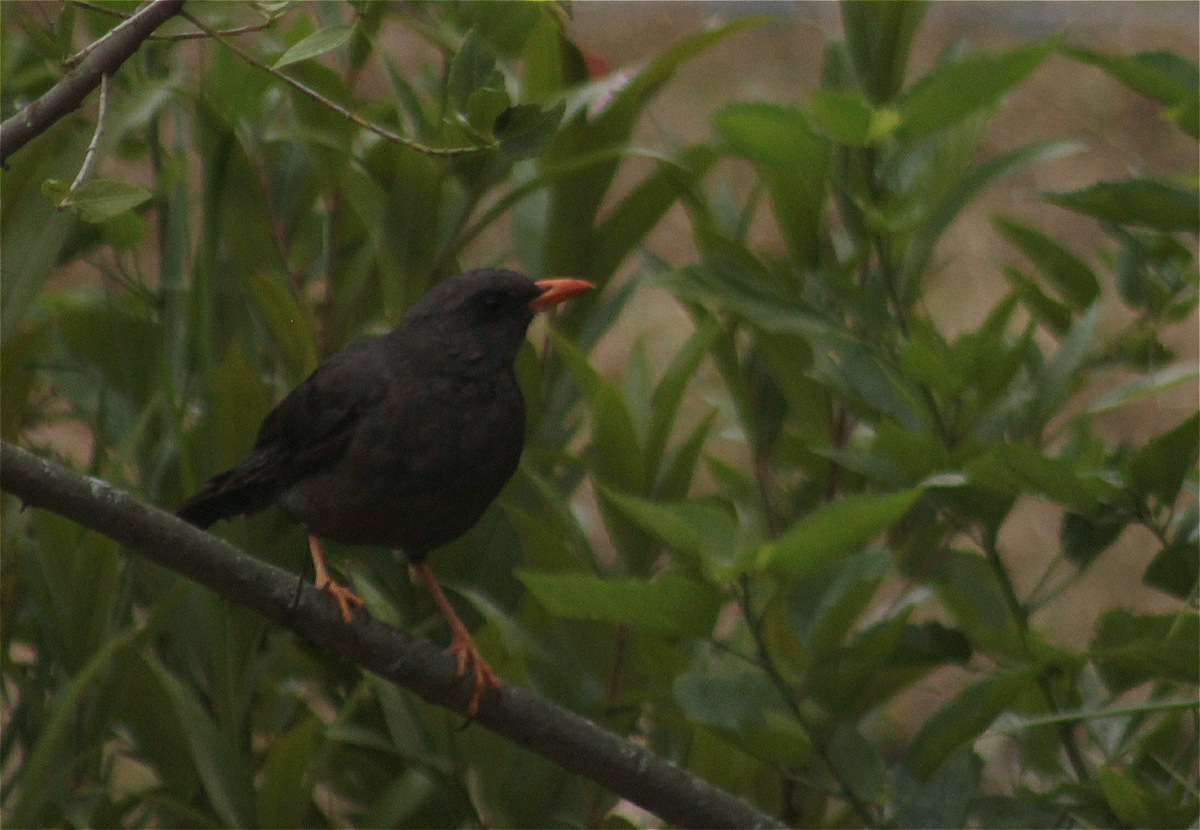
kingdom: Animalia
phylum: Chordata
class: Aves
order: Passeriformes
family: Turdidae
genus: Turdus
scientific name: Turdus fuscater
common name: Great thrush
